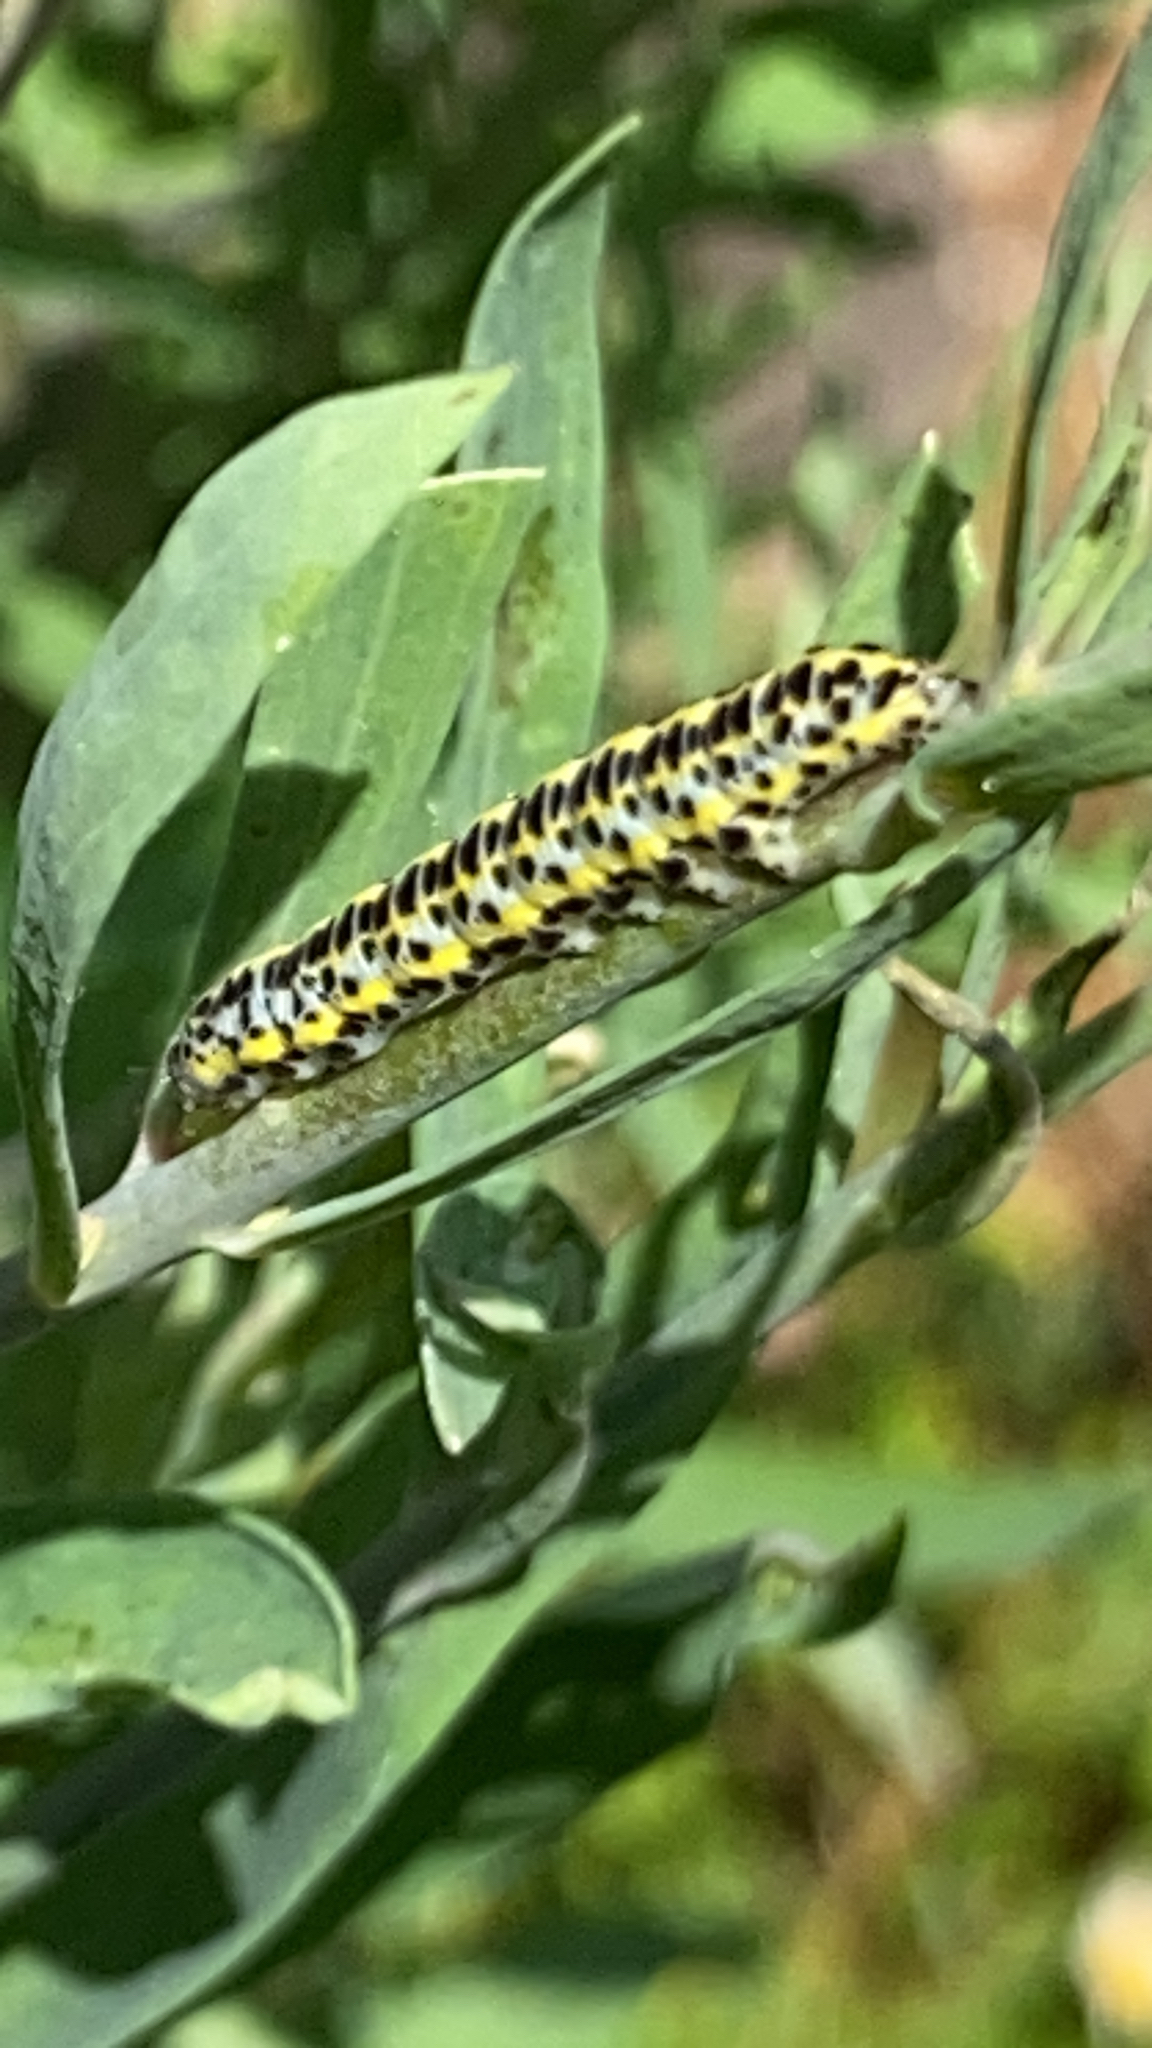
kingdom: Animalia
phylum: Arthropoda
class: Insecta
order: Lepidoptera
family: Noctuidae
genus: Calophasia
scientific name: Calophasia lunula
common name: Toadflax brocade
